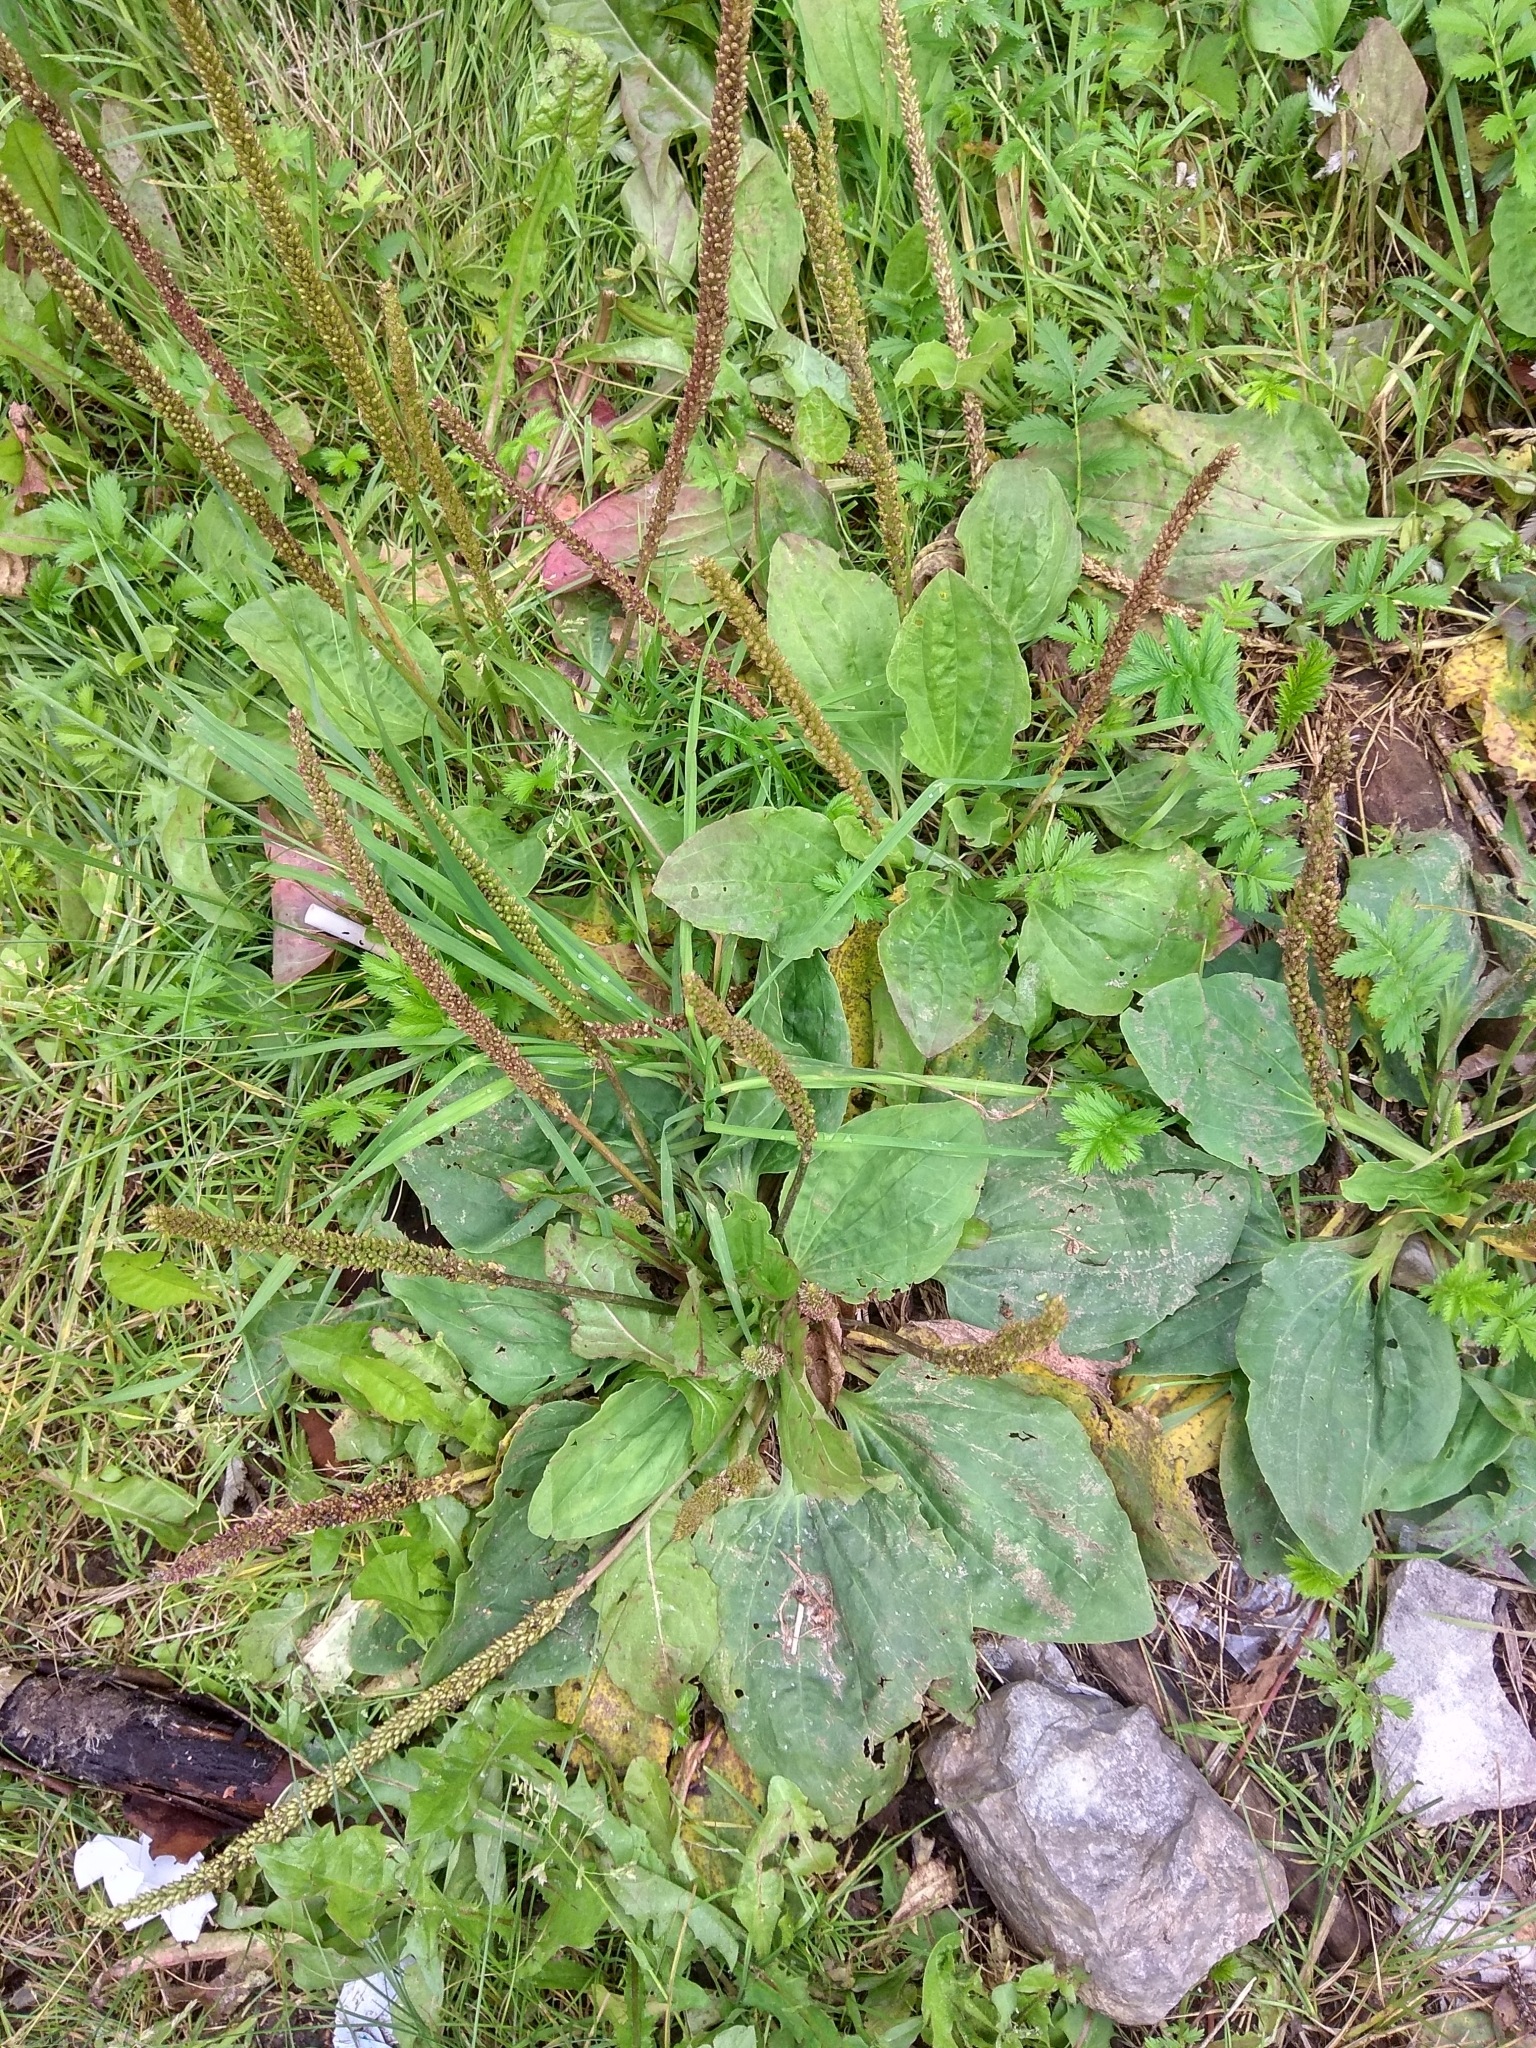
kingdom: Plantae
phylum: Tracheophyta
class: Magnoliopsida
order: Lamiales
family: Plantaginaceae
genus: Plantago
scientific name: Plantago major
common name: Common plantain
